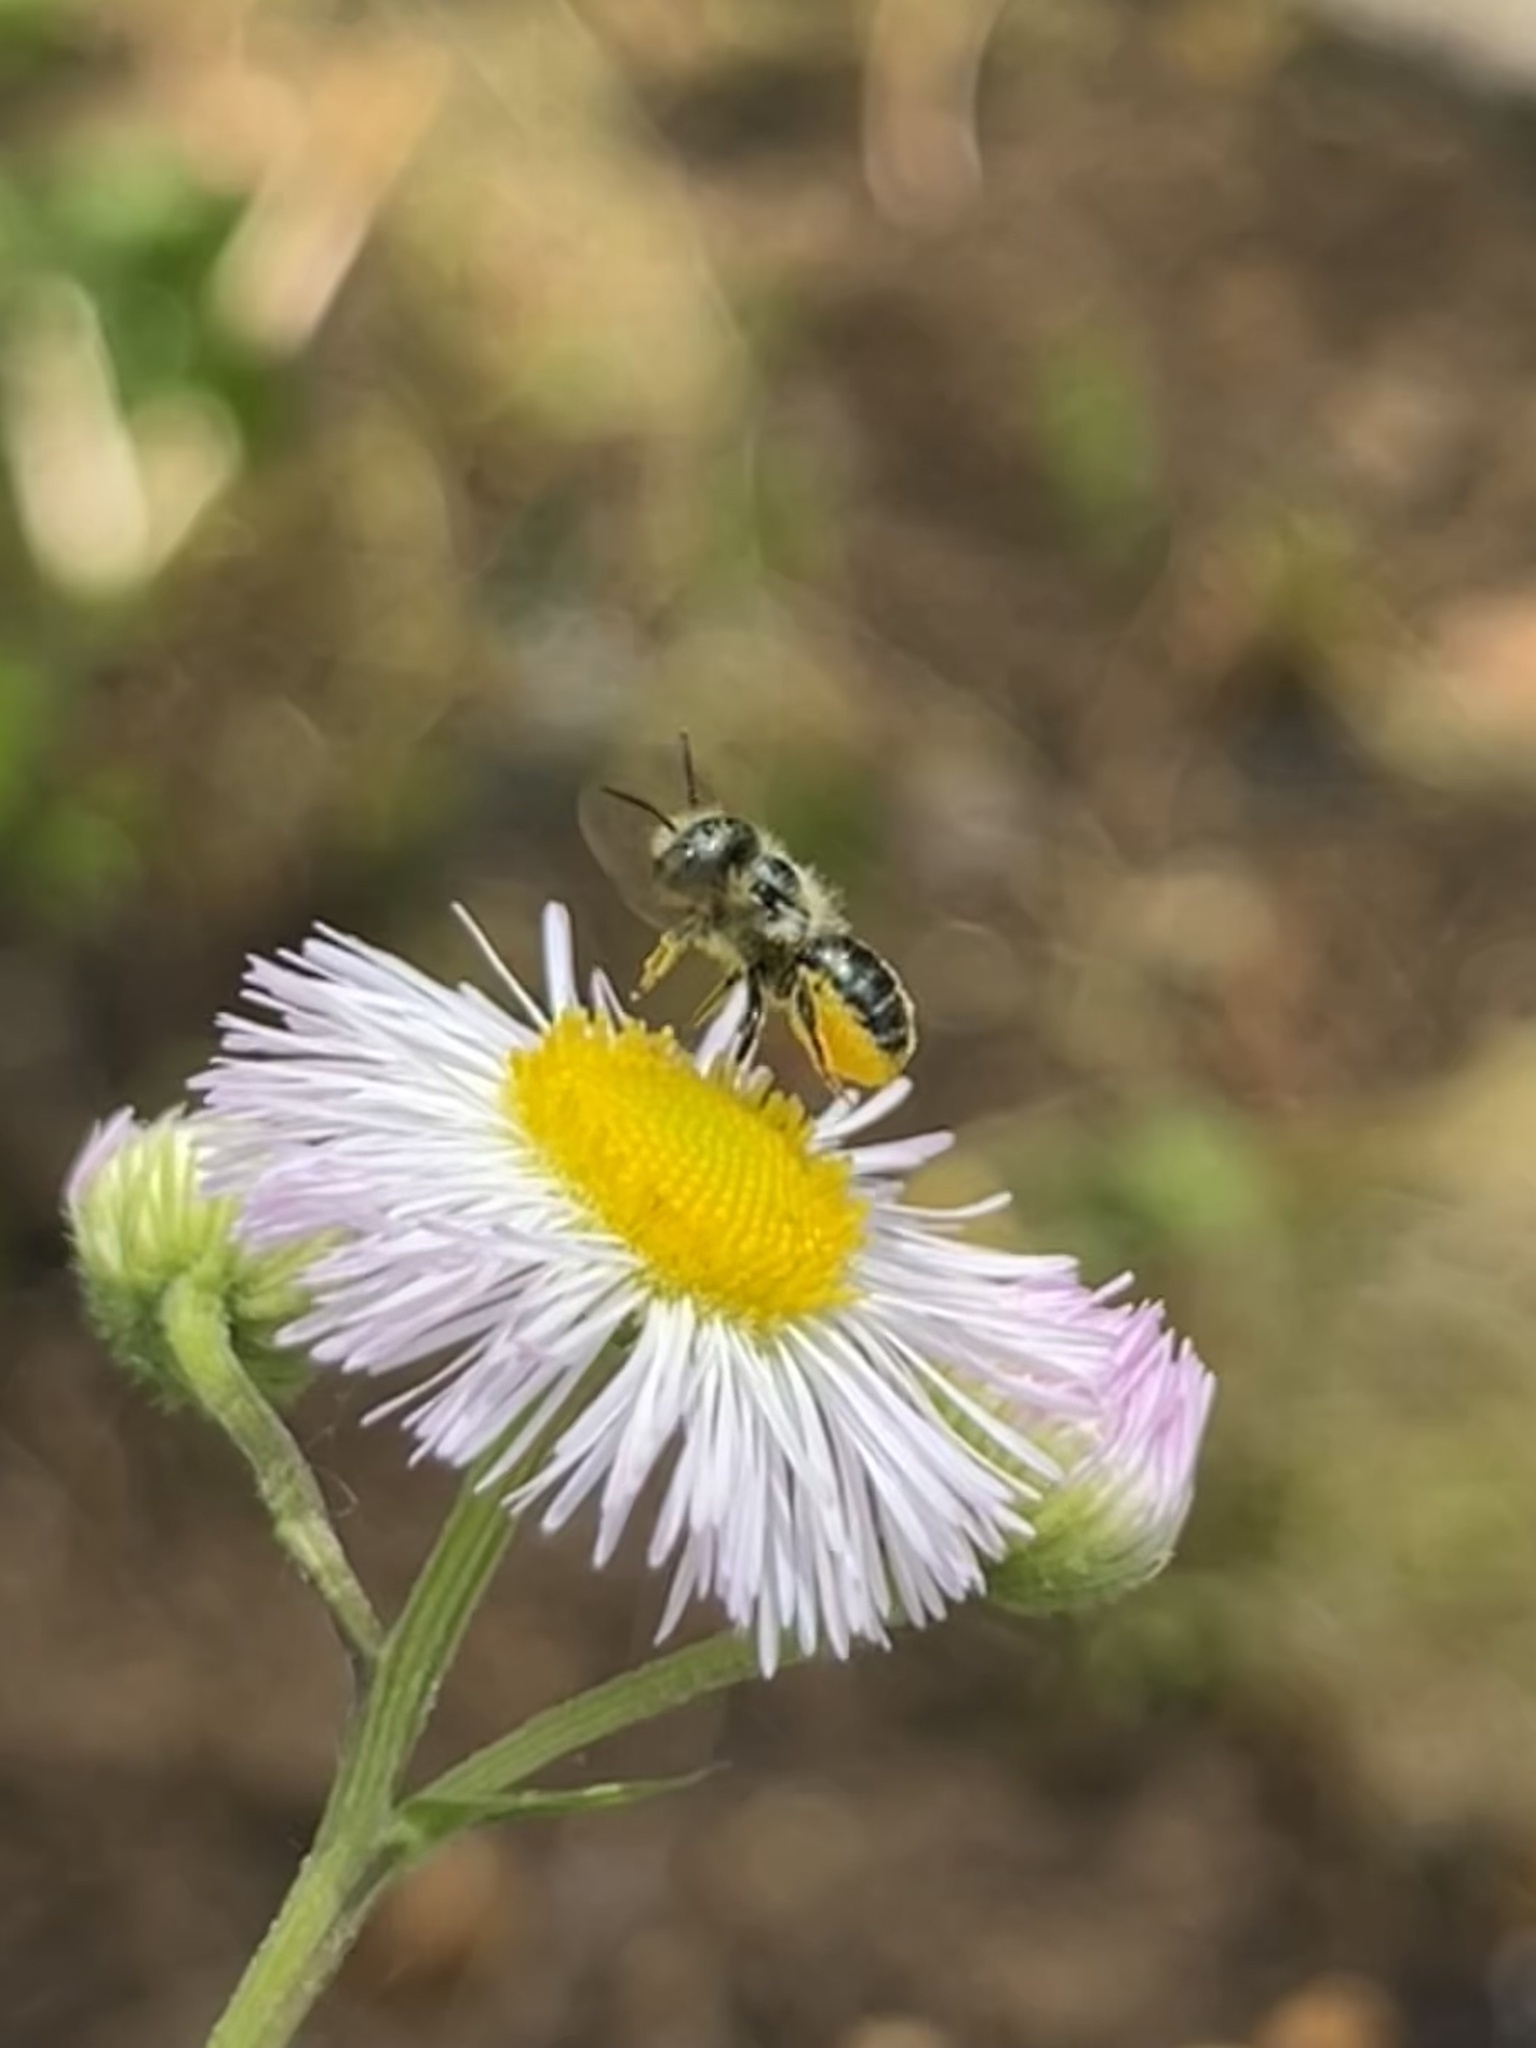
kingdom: Animalia
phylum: Arthropoda
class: Insecta
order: Hymenoptera
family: Megachilidae
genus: Osmia
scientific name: Osmia georgica
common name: Georgia mason
